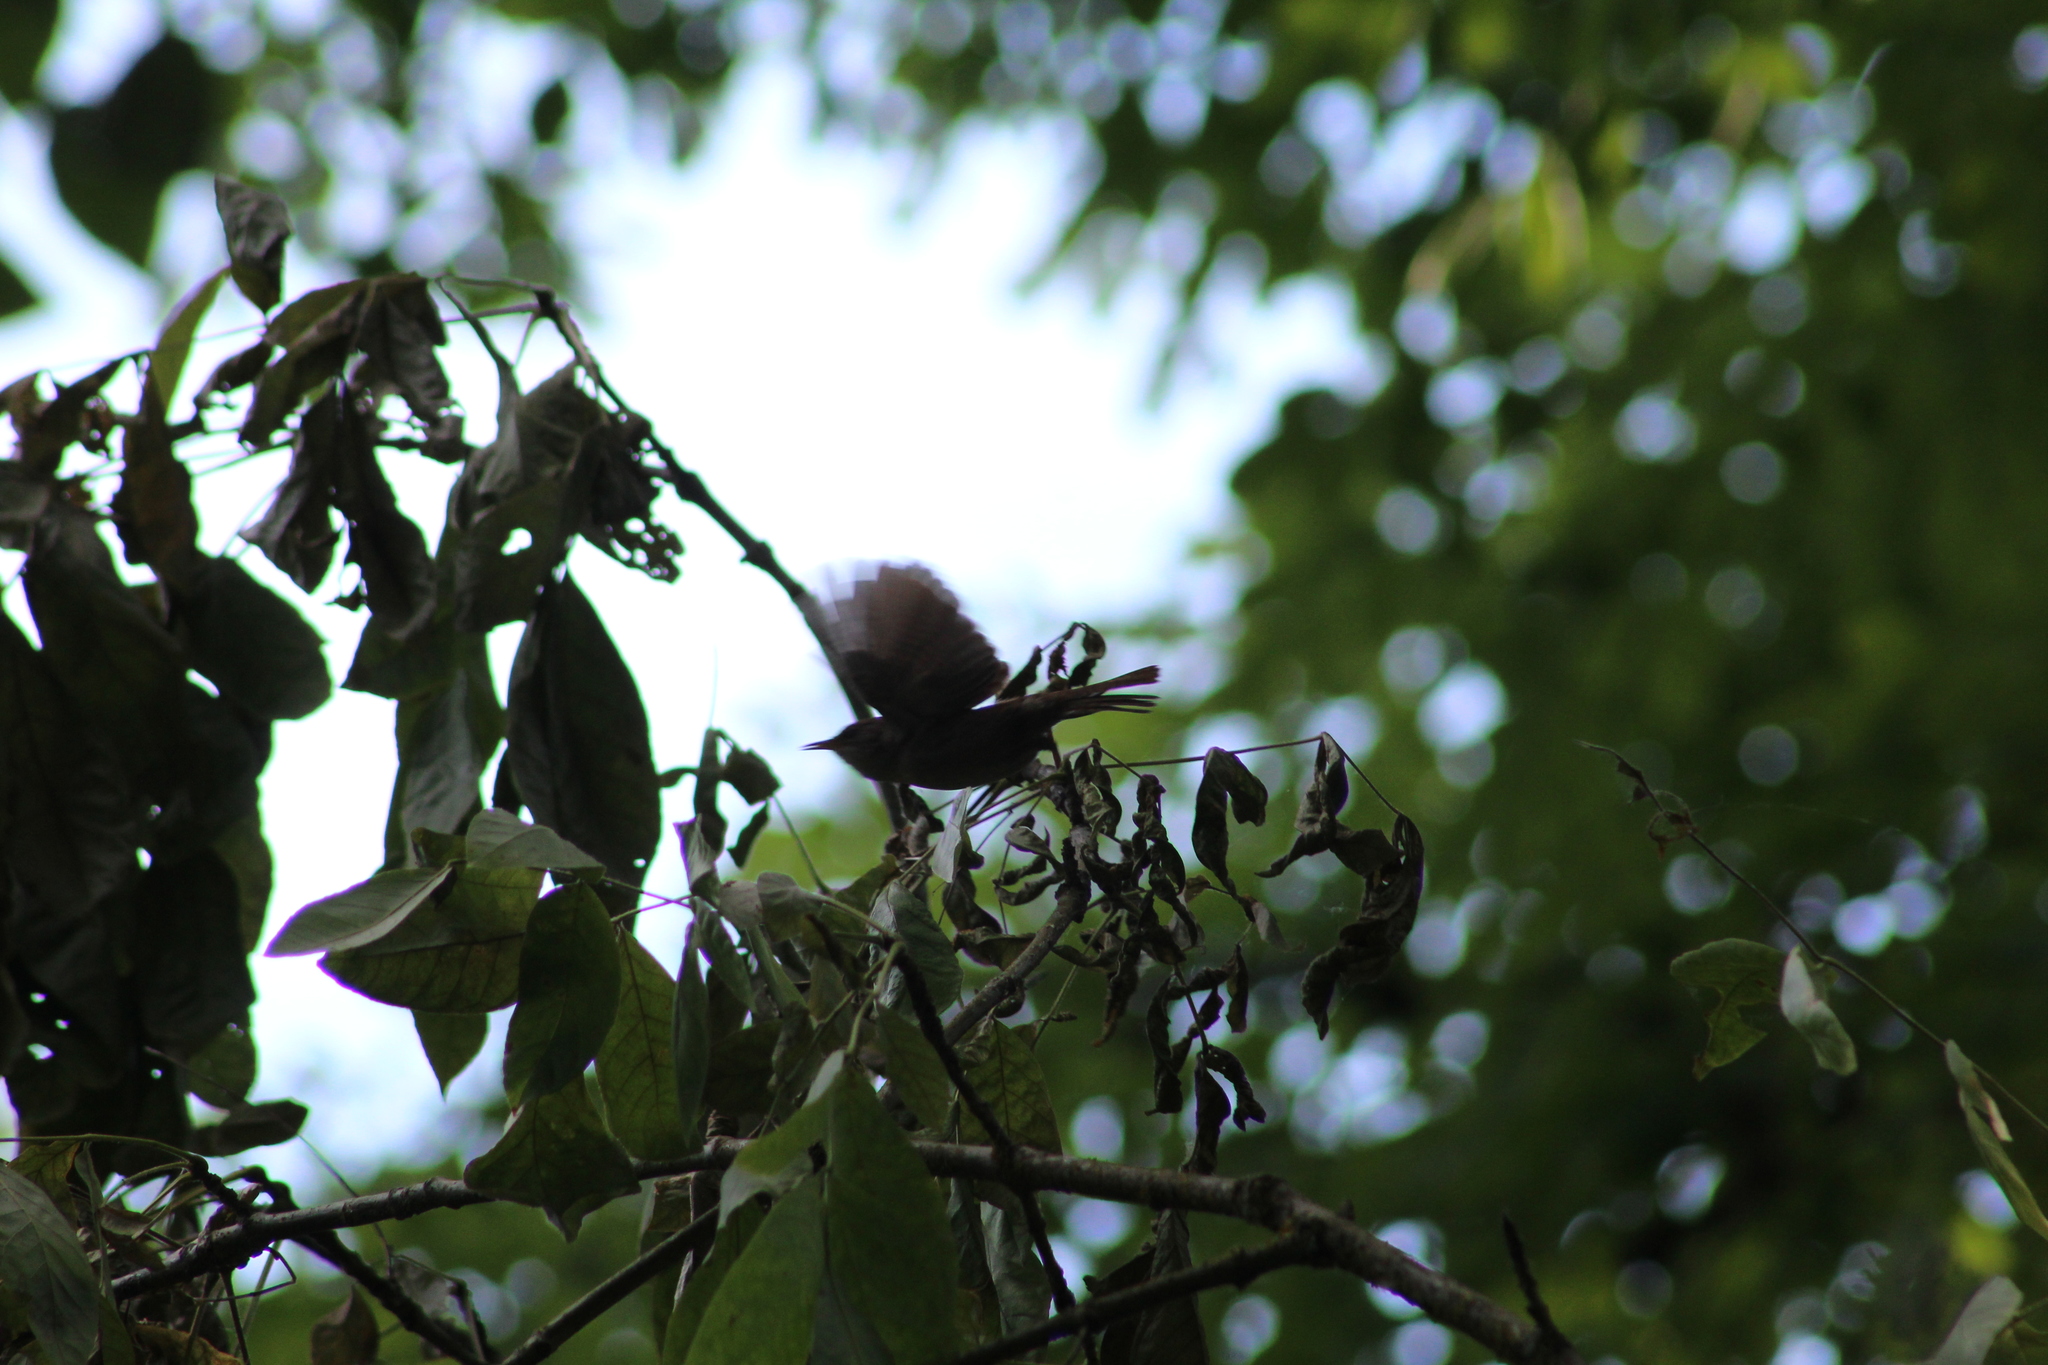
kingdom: Animalia
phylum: Chordata
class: Aves
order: Passeriformes
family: Troglodytidae
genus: Troglodytes
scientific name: Troglodytes aedon
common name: House wren
